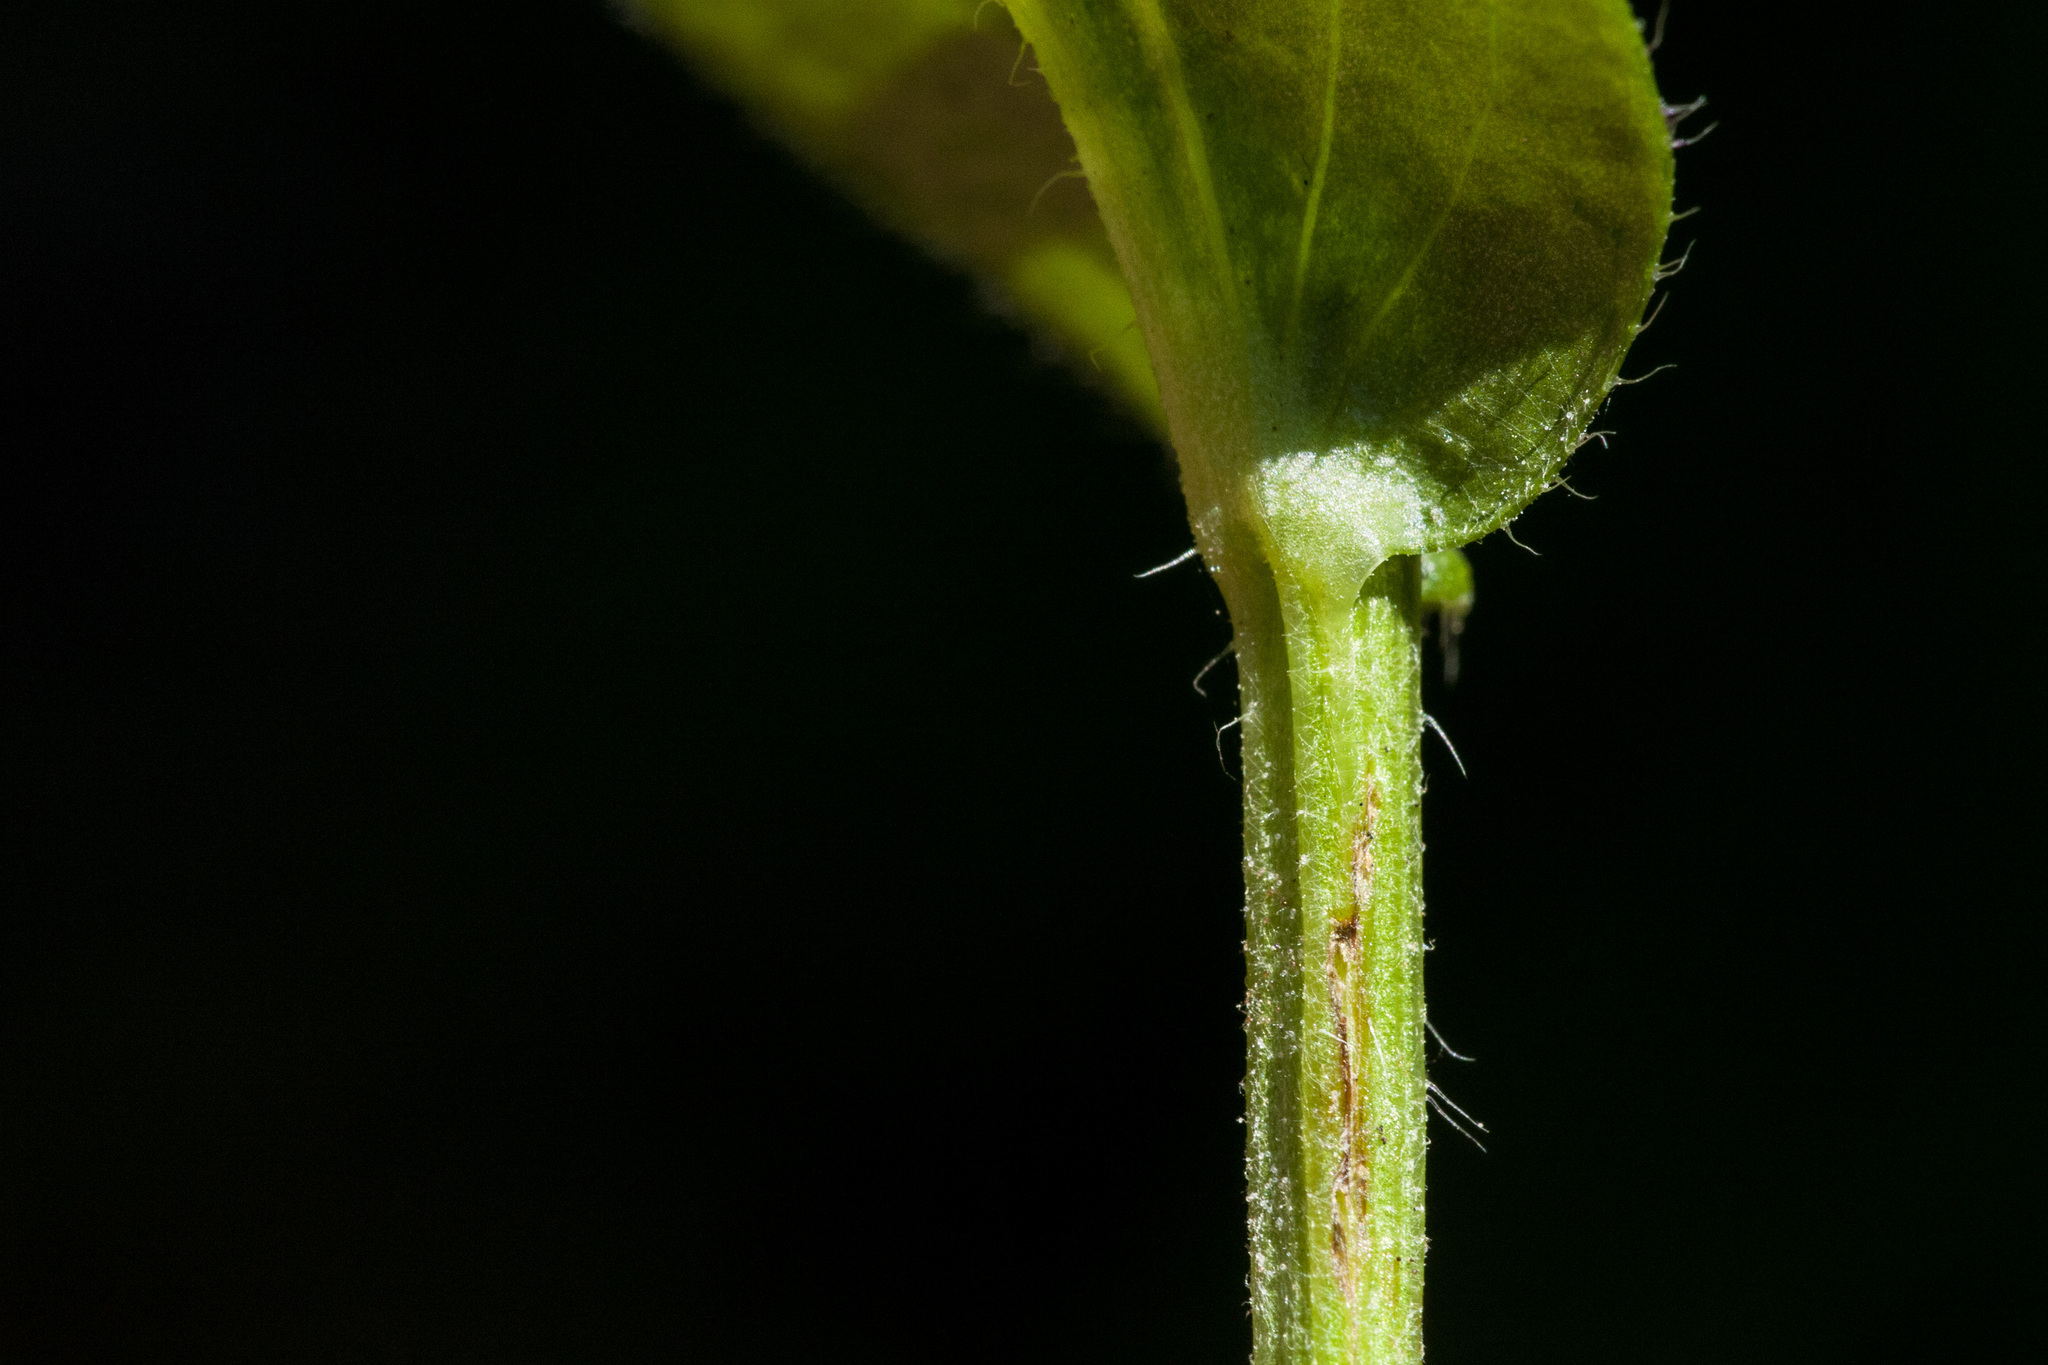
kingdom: Plantae
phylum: Tracheophyta
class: Magnoliopsida
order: Asterales
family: Asteraceae
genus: Erigeron
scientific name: Erigeron coulteri
